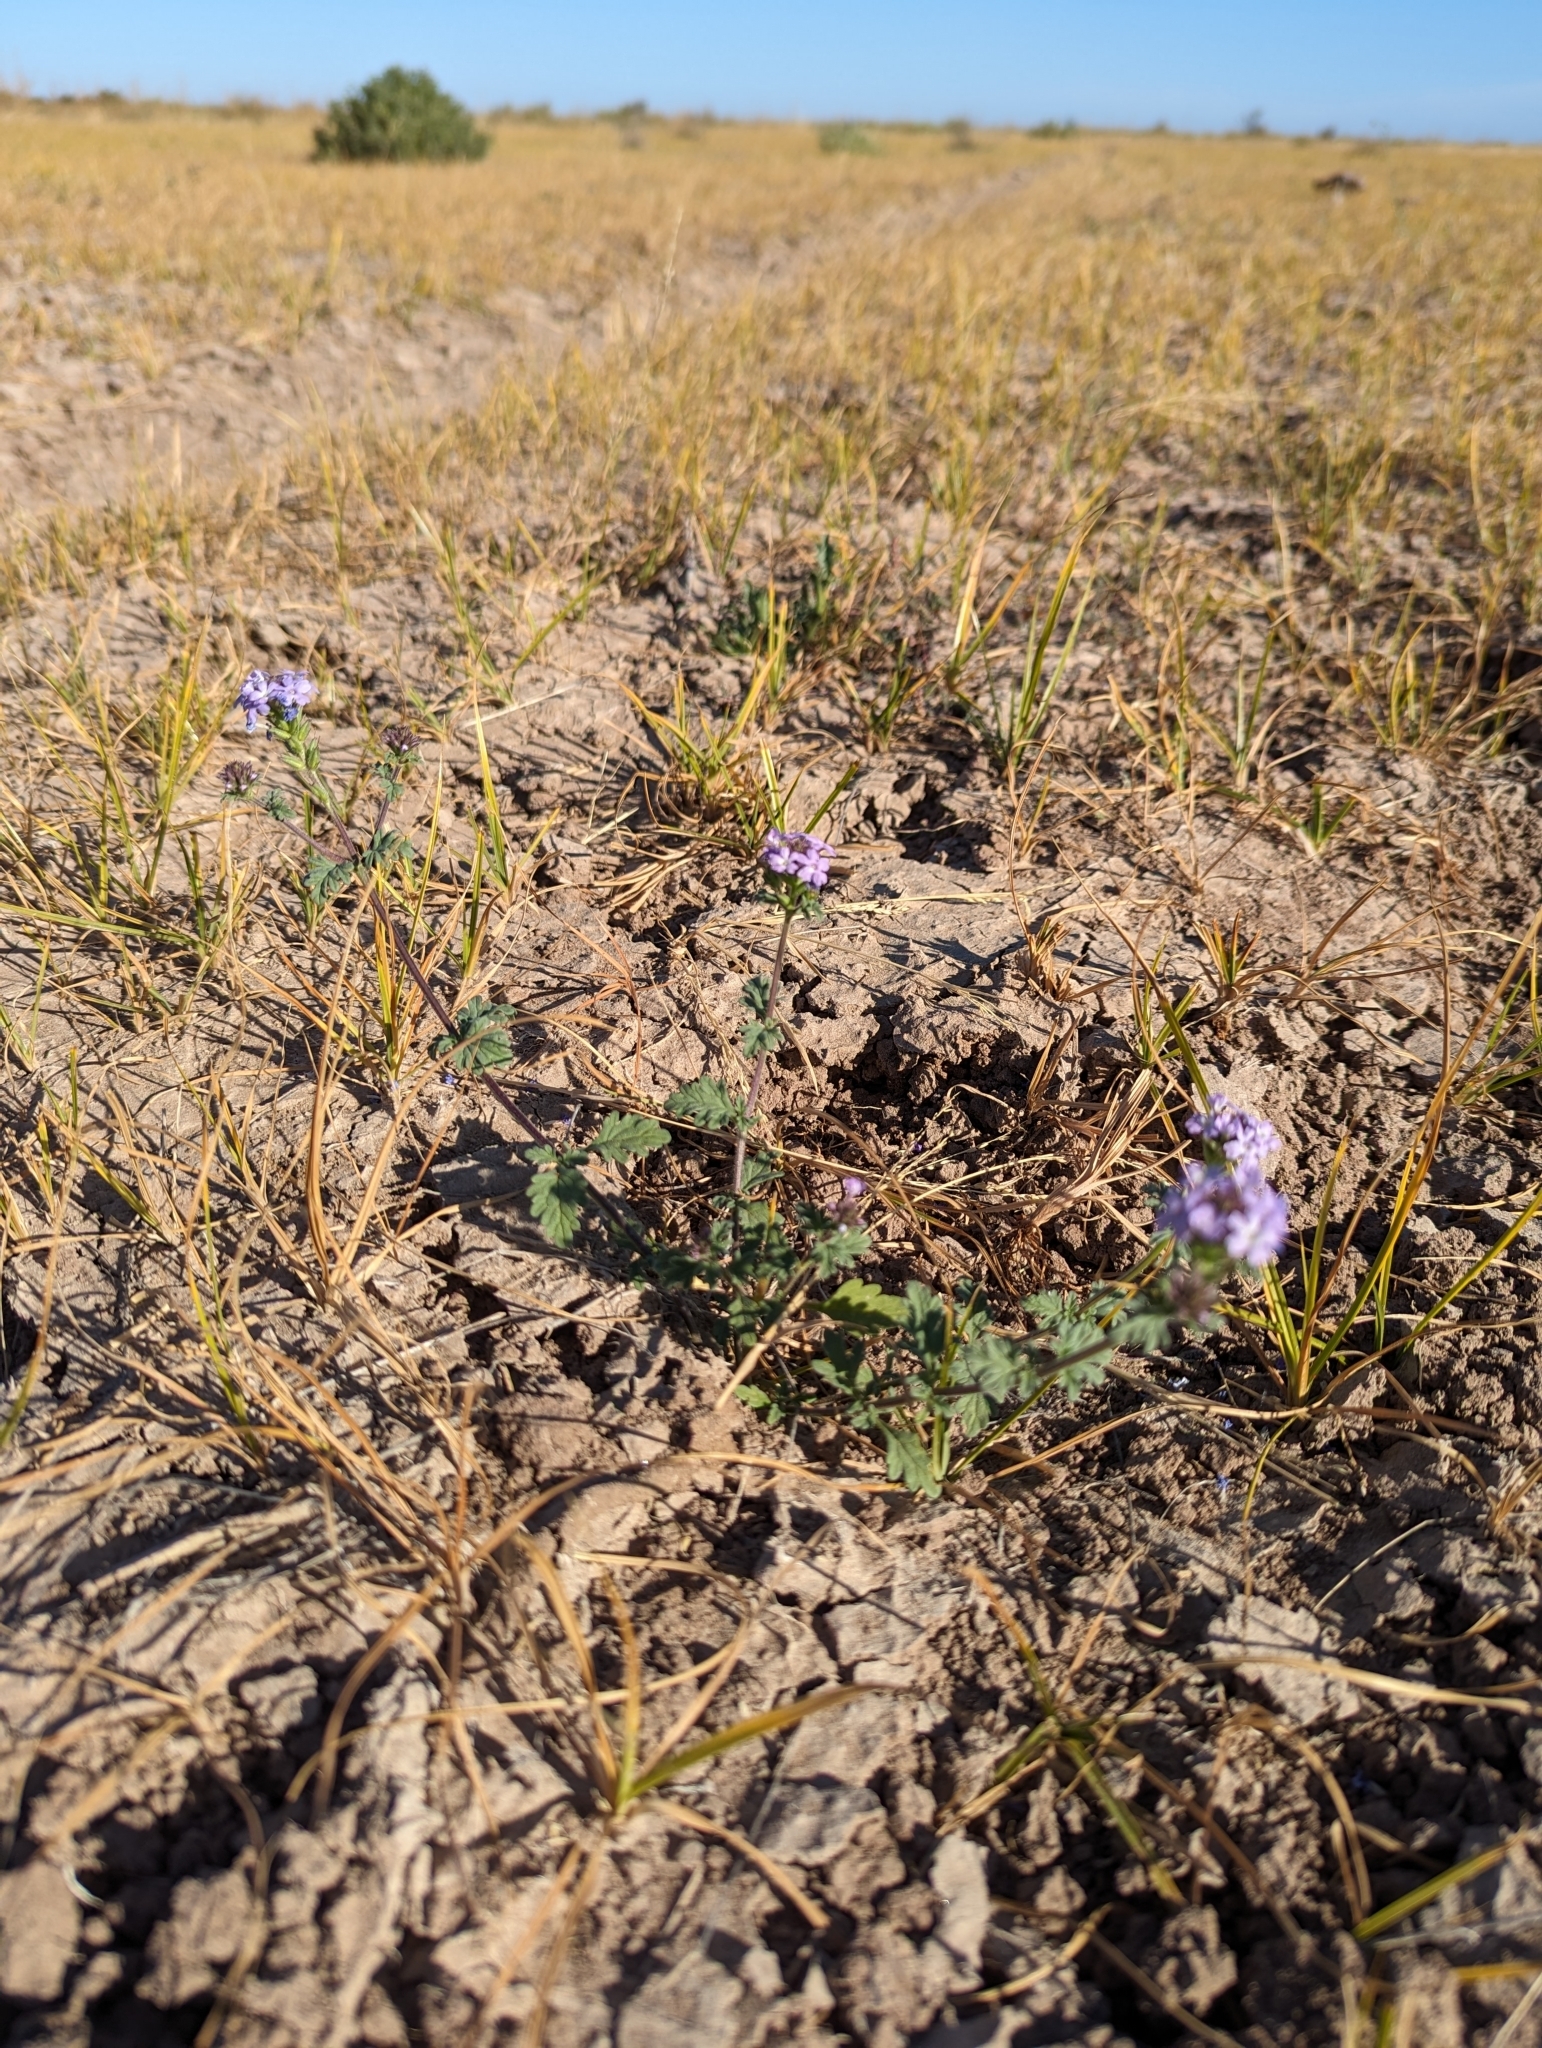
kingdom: Plantae
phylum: Tracheophyta
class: Magnoliopsida
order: Lamiales
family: Verbenaceae
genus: Verbena
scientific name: Verbena bajacalifornica
